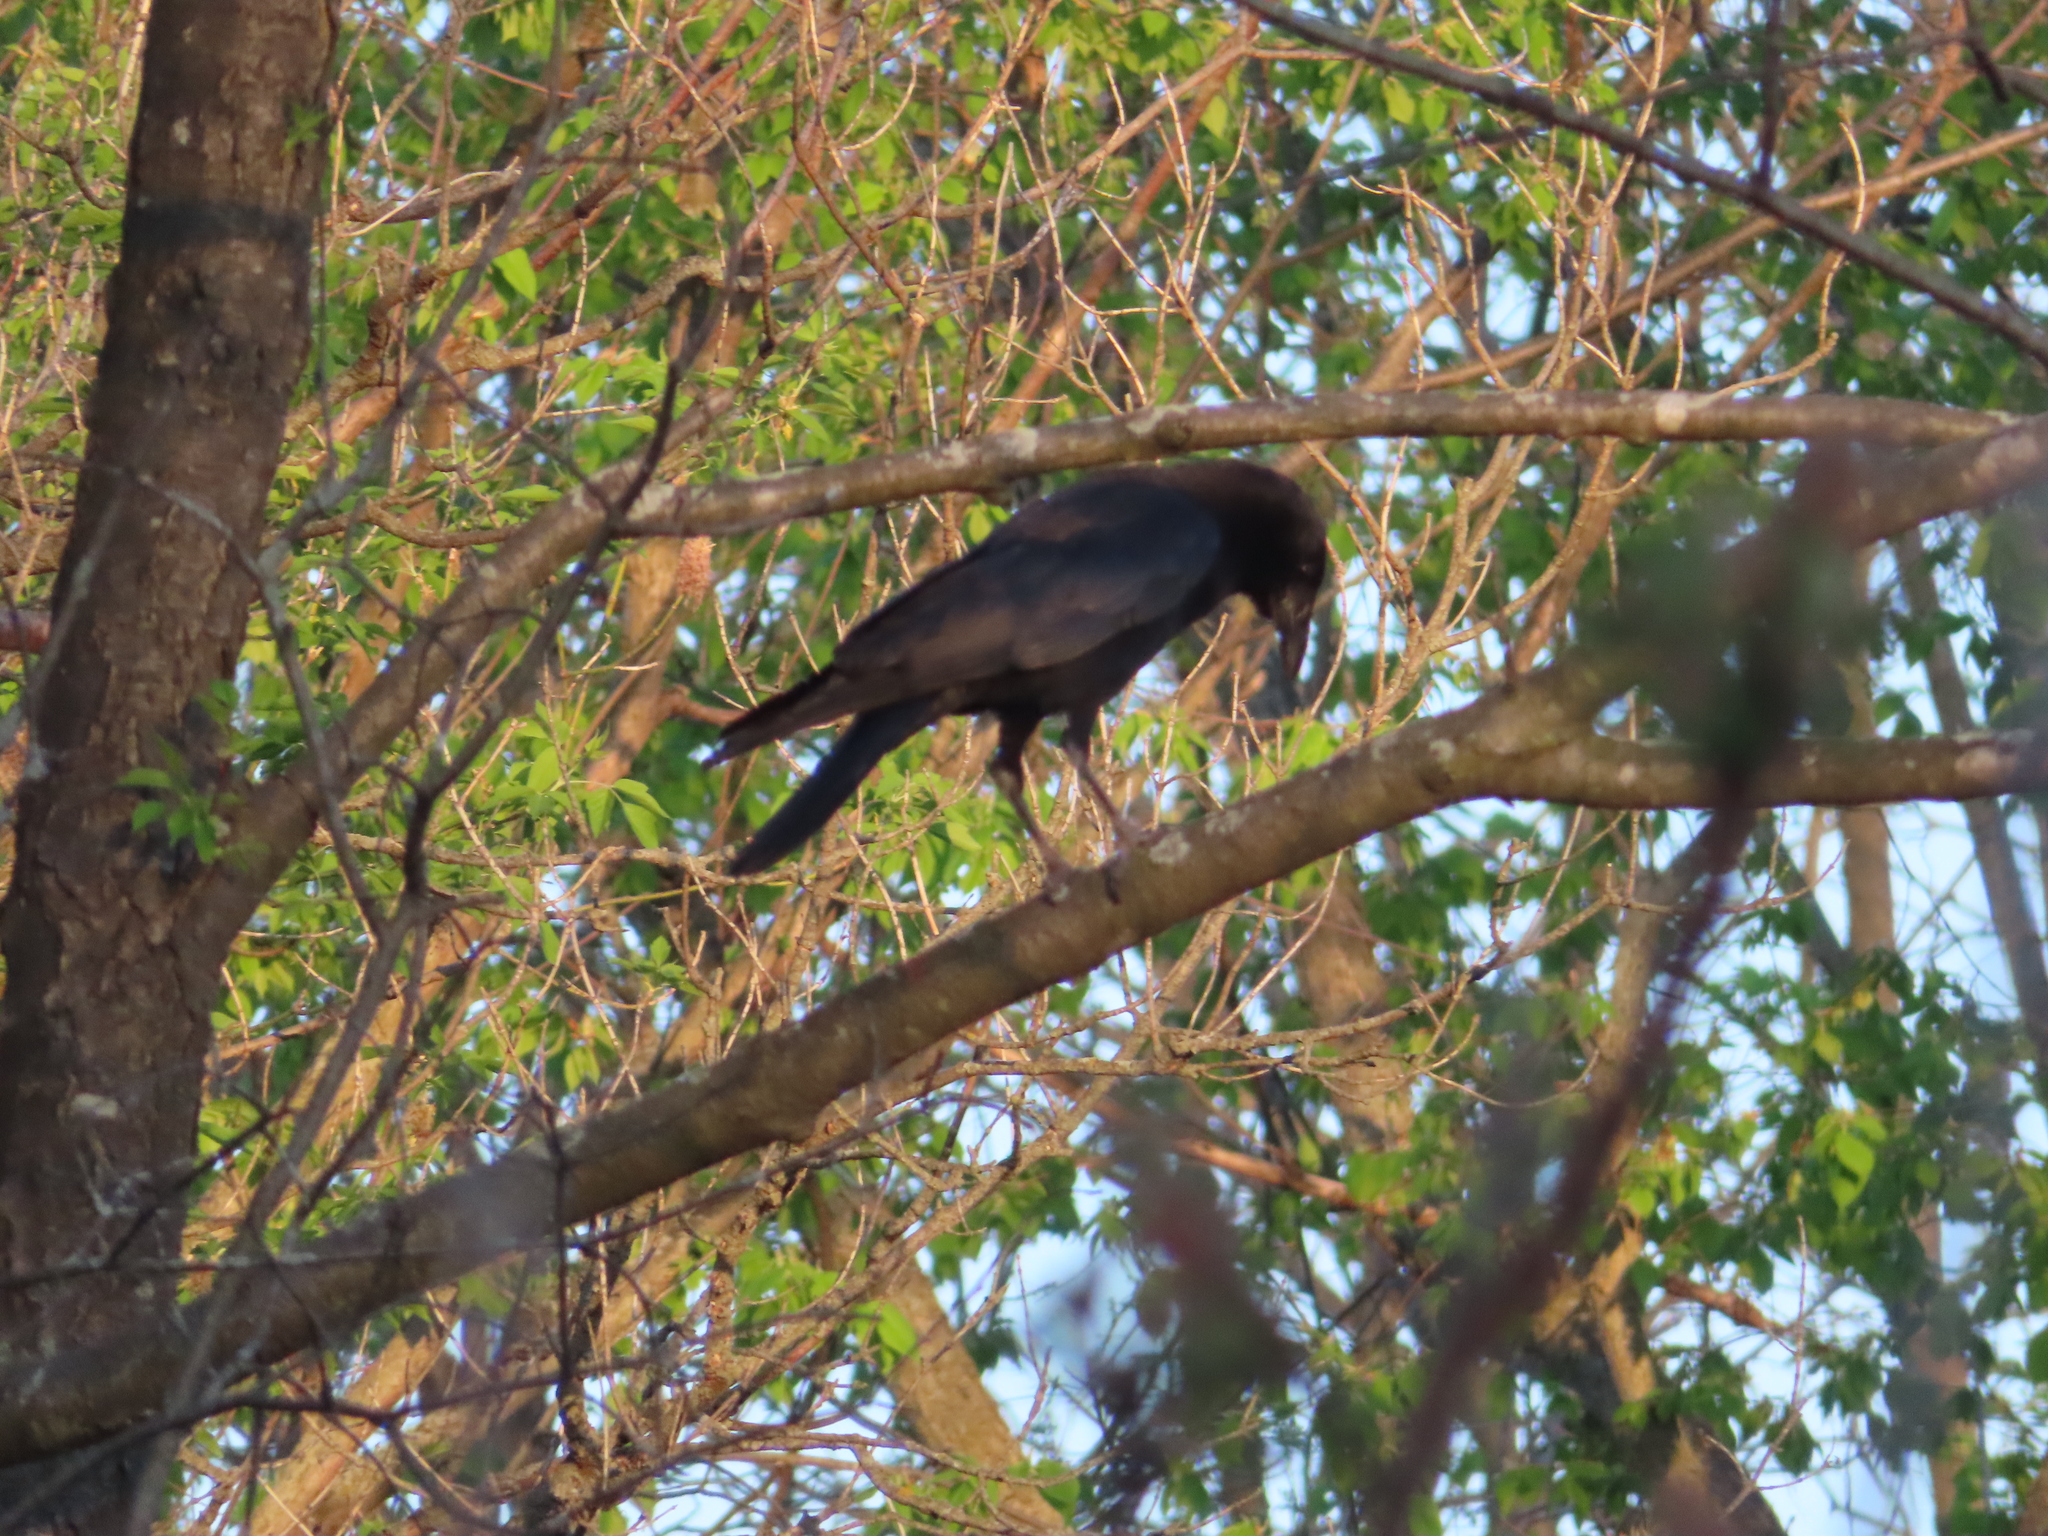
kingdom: Animalia
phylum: Chordata
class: Aves
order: Passeriformes
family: Corvidae
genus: Corvus
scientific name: Corvus brachyrhynchos
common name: American crow
